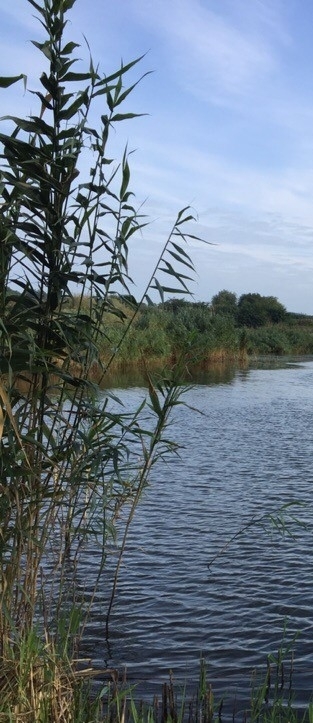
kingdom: Plantae
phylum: Tracheophyta
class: Liliopsida
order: Poales
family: Poaceae
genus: Phragmites
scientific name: Phragmites australis
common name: Common reed
